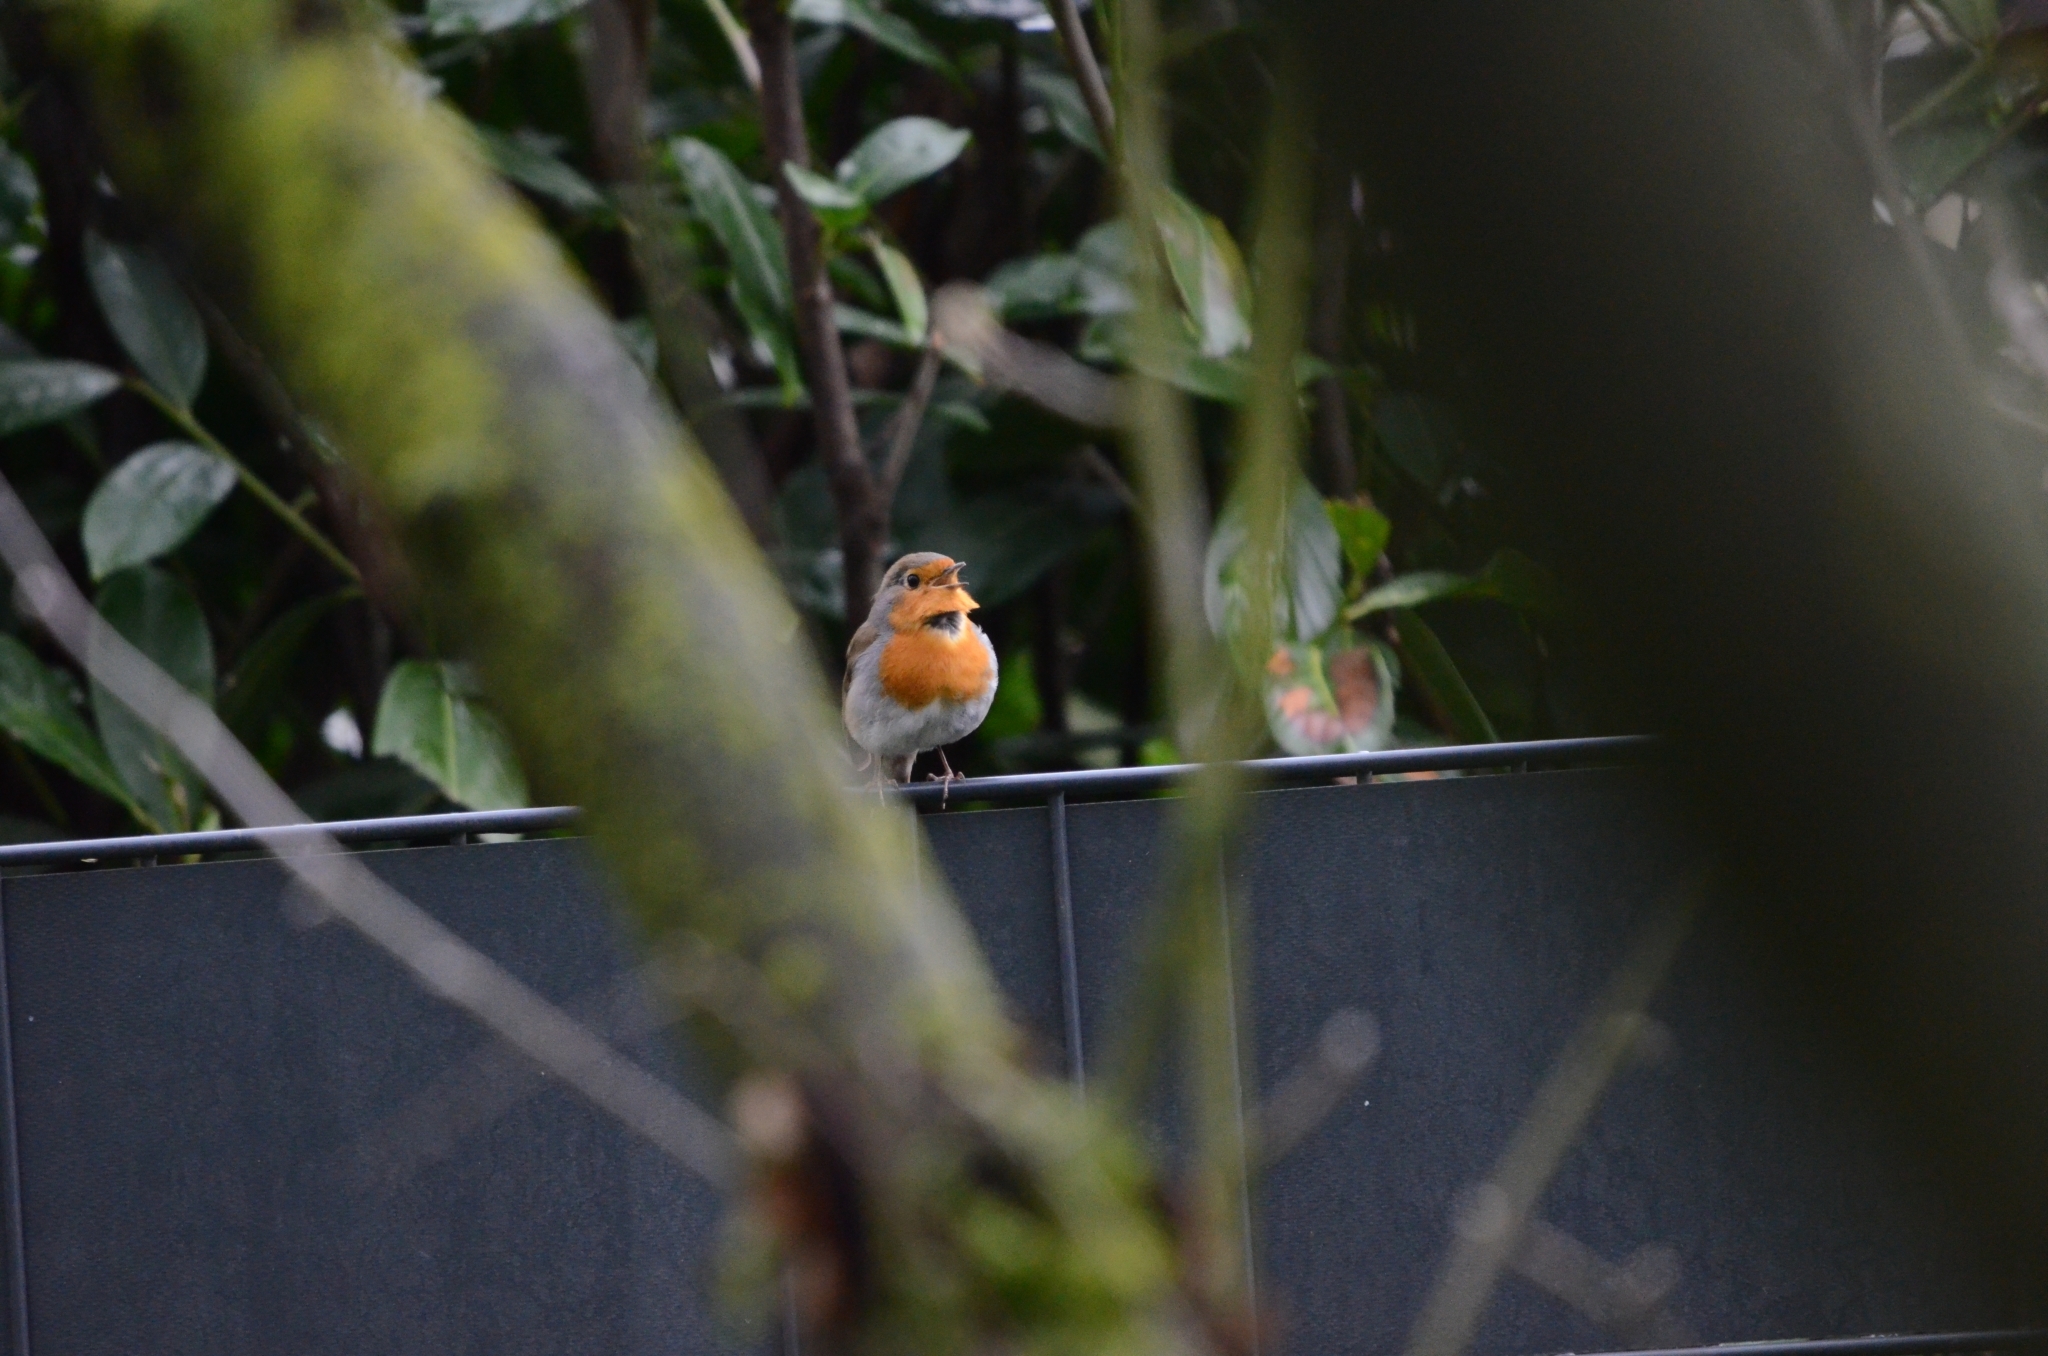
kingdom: Animalia
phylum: Chordata
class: Aves
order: Passeriformes
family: Muscicapidae
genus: Erithacus
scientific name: Erithacus rubecula
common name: European robin
